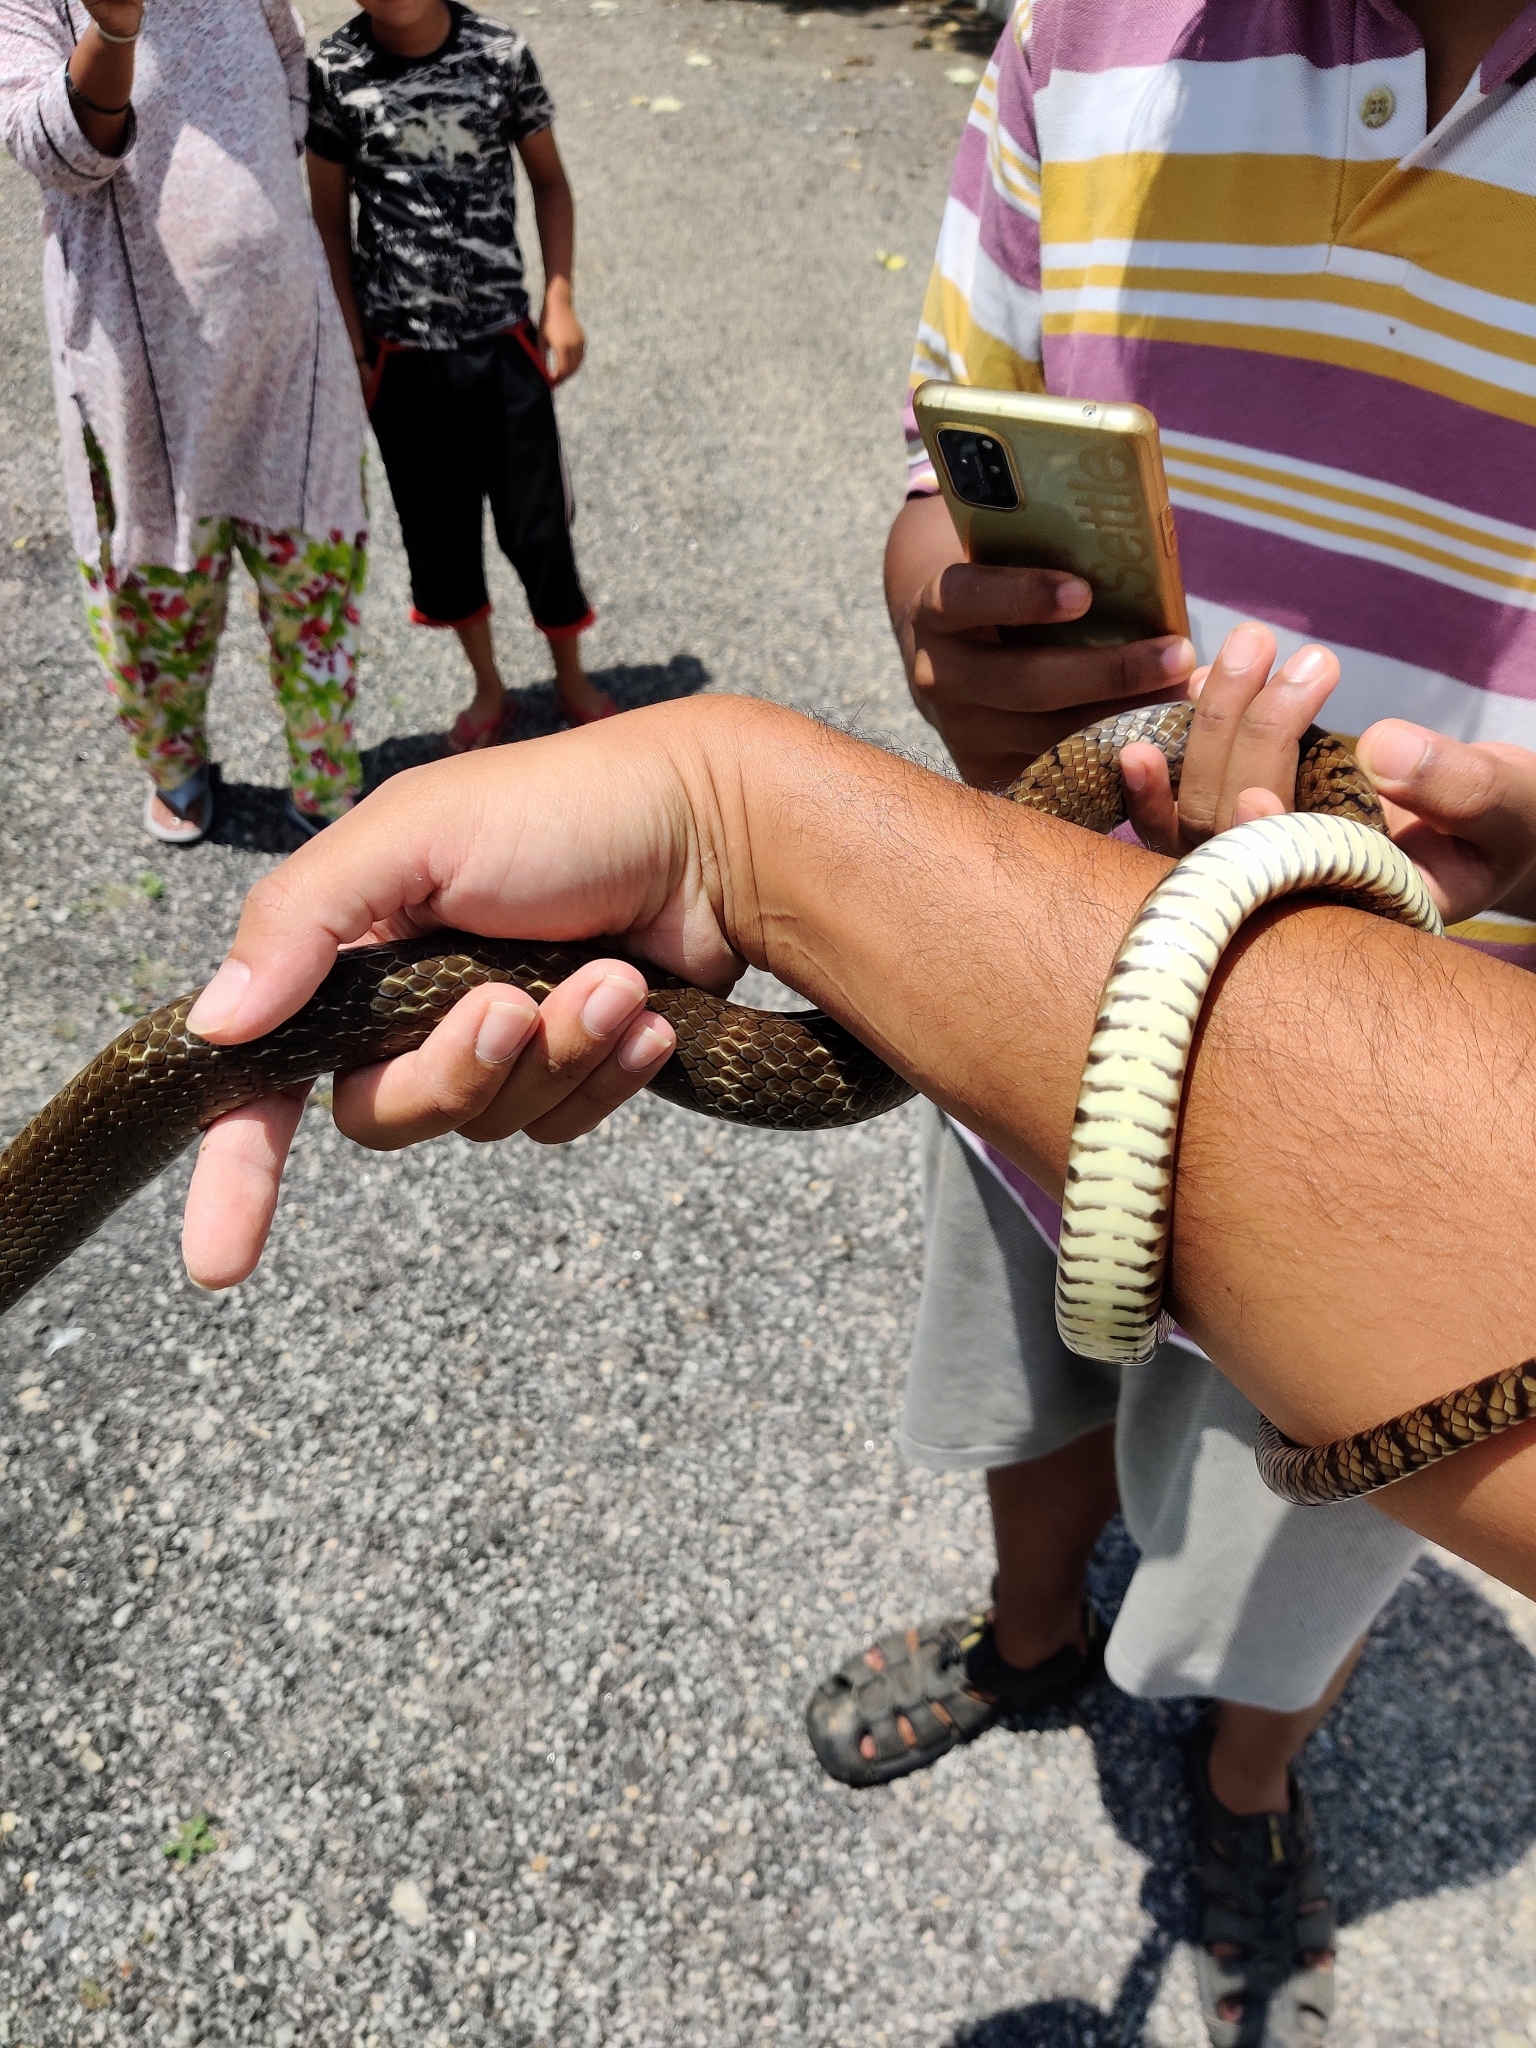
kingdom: Animalia
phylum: Chordata
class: Squamata
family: Colubridae
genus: Ptyas
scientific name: Ptyas mucosa
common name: Oriental ratsnake
